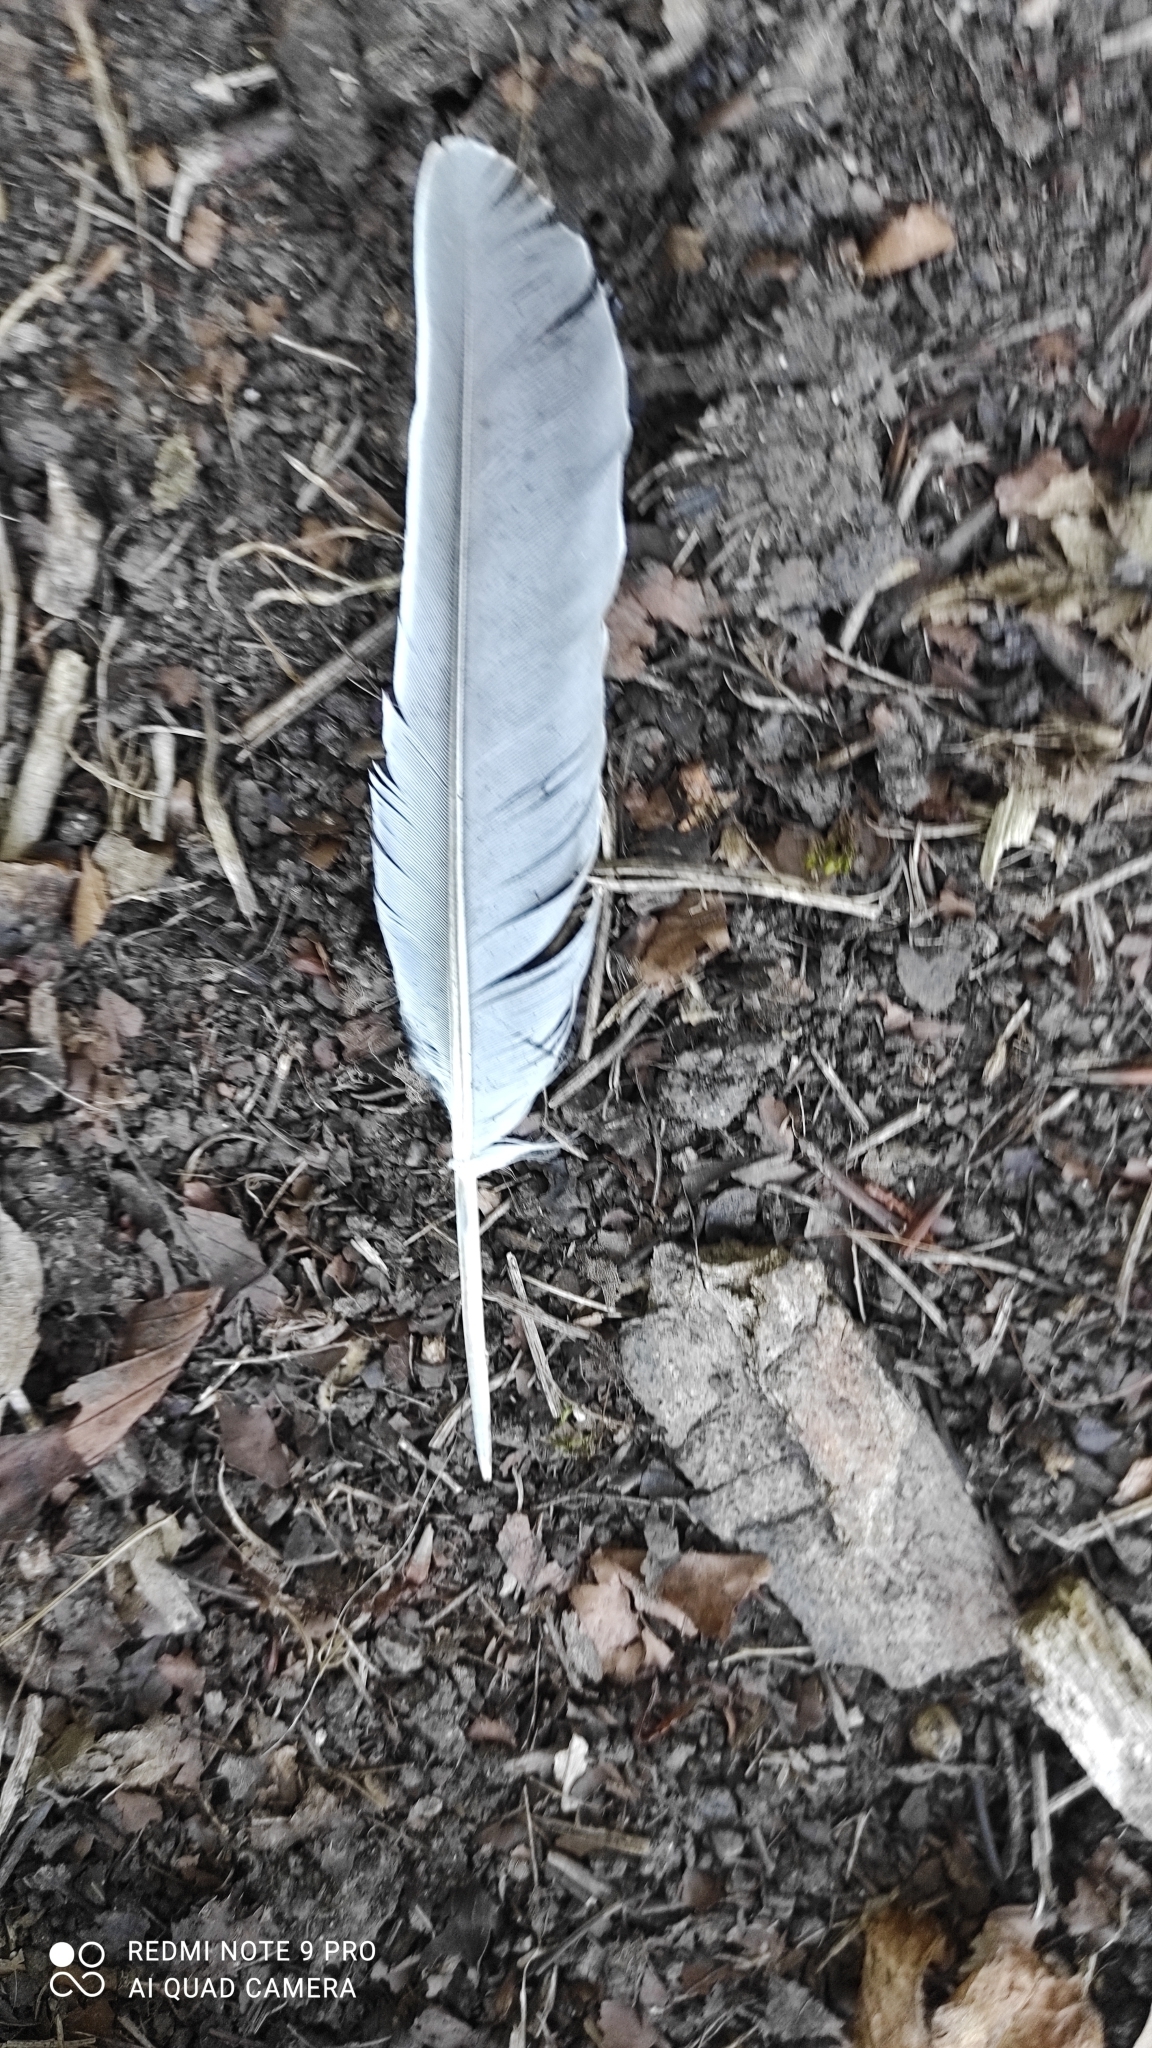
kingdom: Animalia
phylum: Chordata
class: Aves
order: Columbiformes
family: Columbidae
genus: Columba
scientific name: Columba palumbus
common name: Common wood pigeon
